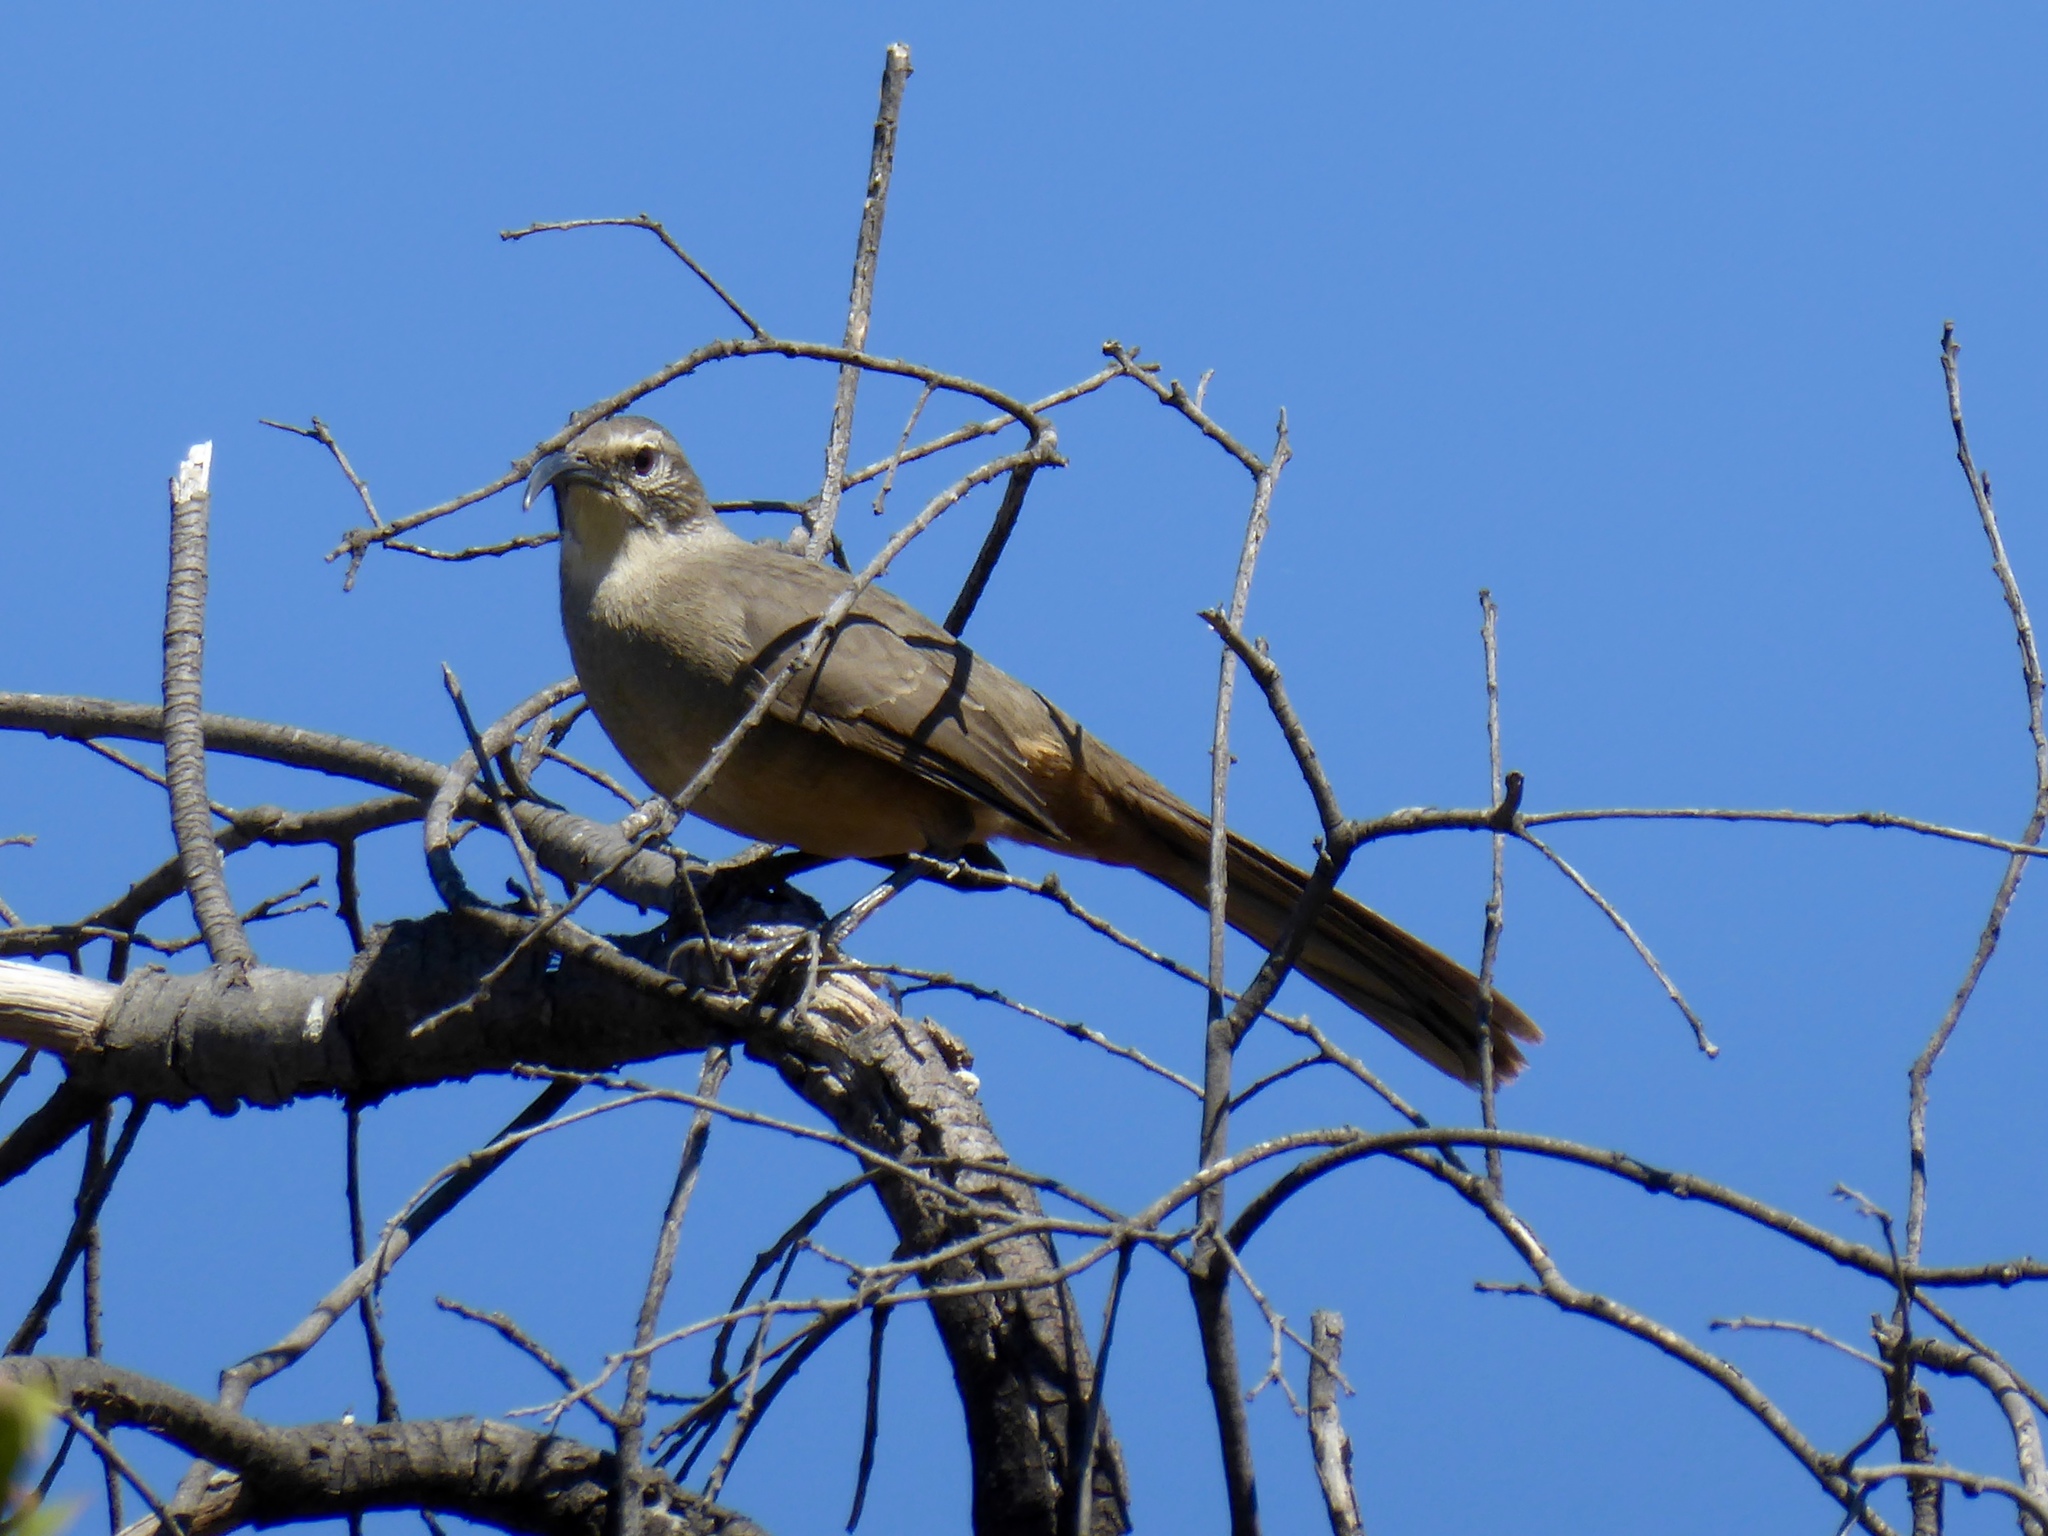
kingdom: Animalia
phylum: Chordata
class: Aves
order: Passeriformes
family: Mimidae
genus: Toxostoma
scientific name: Toxostoma redivivum
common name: California thrasher
